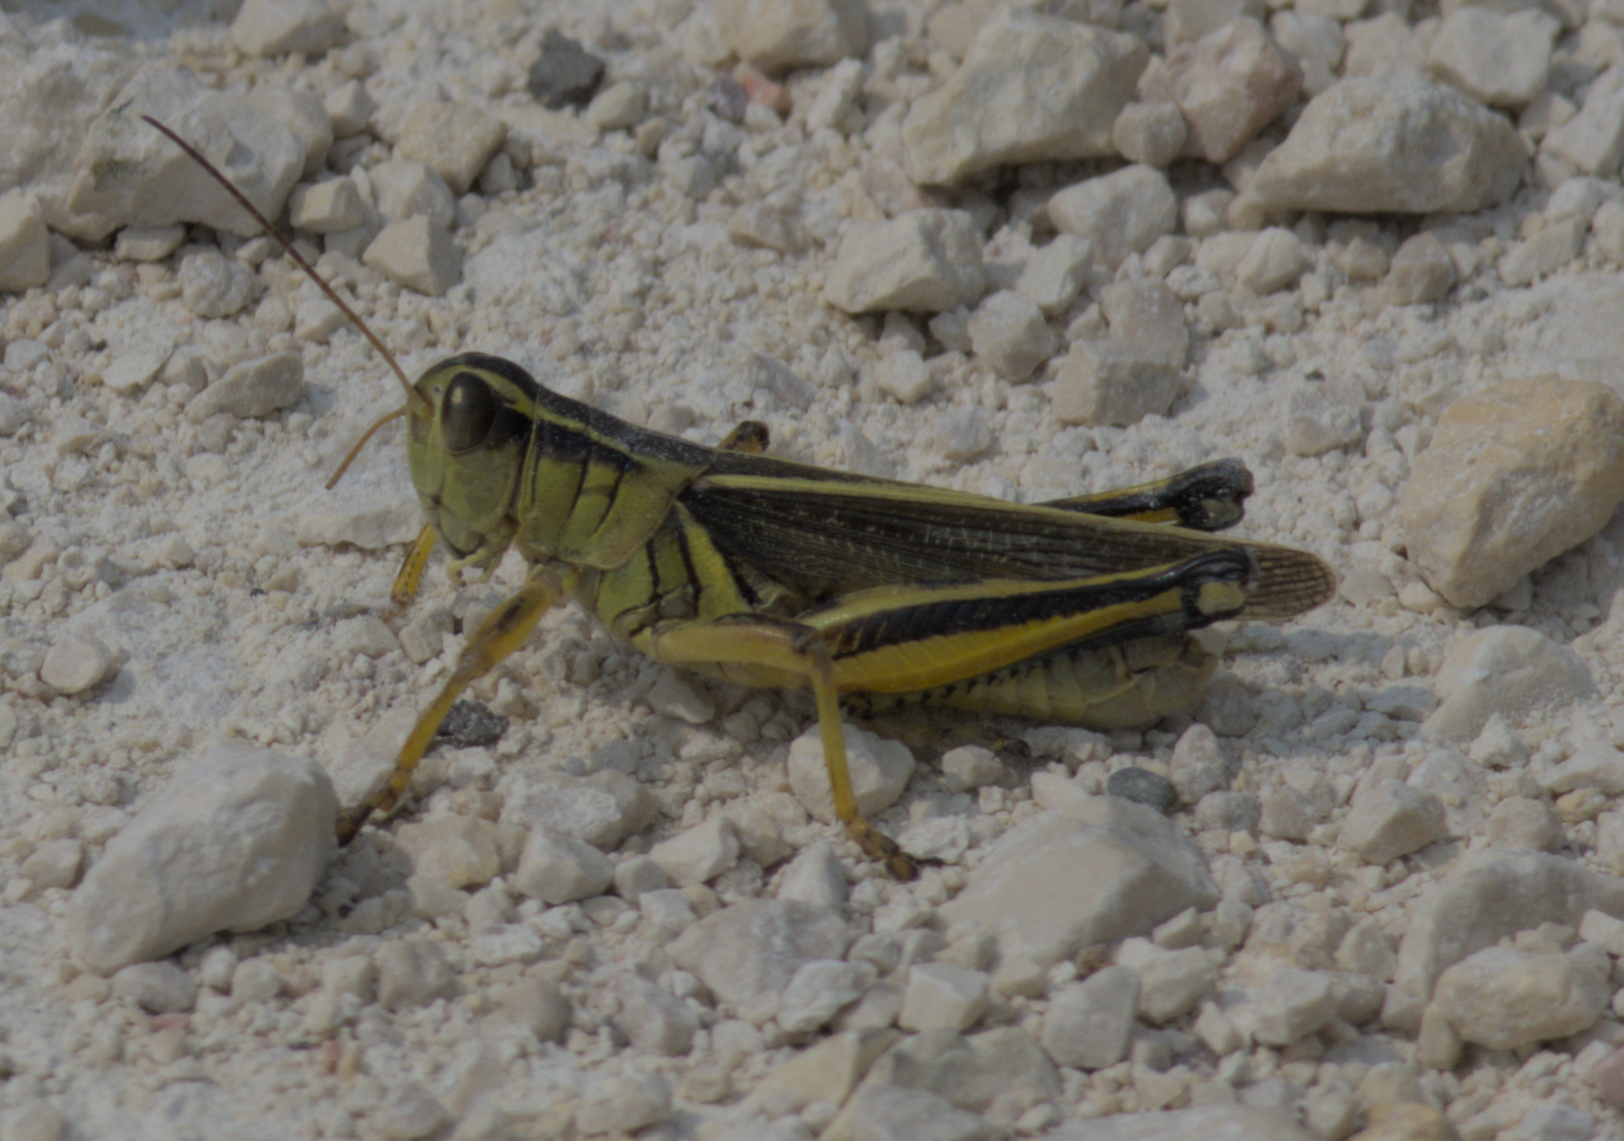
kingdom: Animalia
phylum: Arthropoda
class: Insecta
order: Orthoptera
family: Acrididae
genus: Melanoplus
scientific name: Melanoplus bivittatus
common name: Two-striped grasshopper
